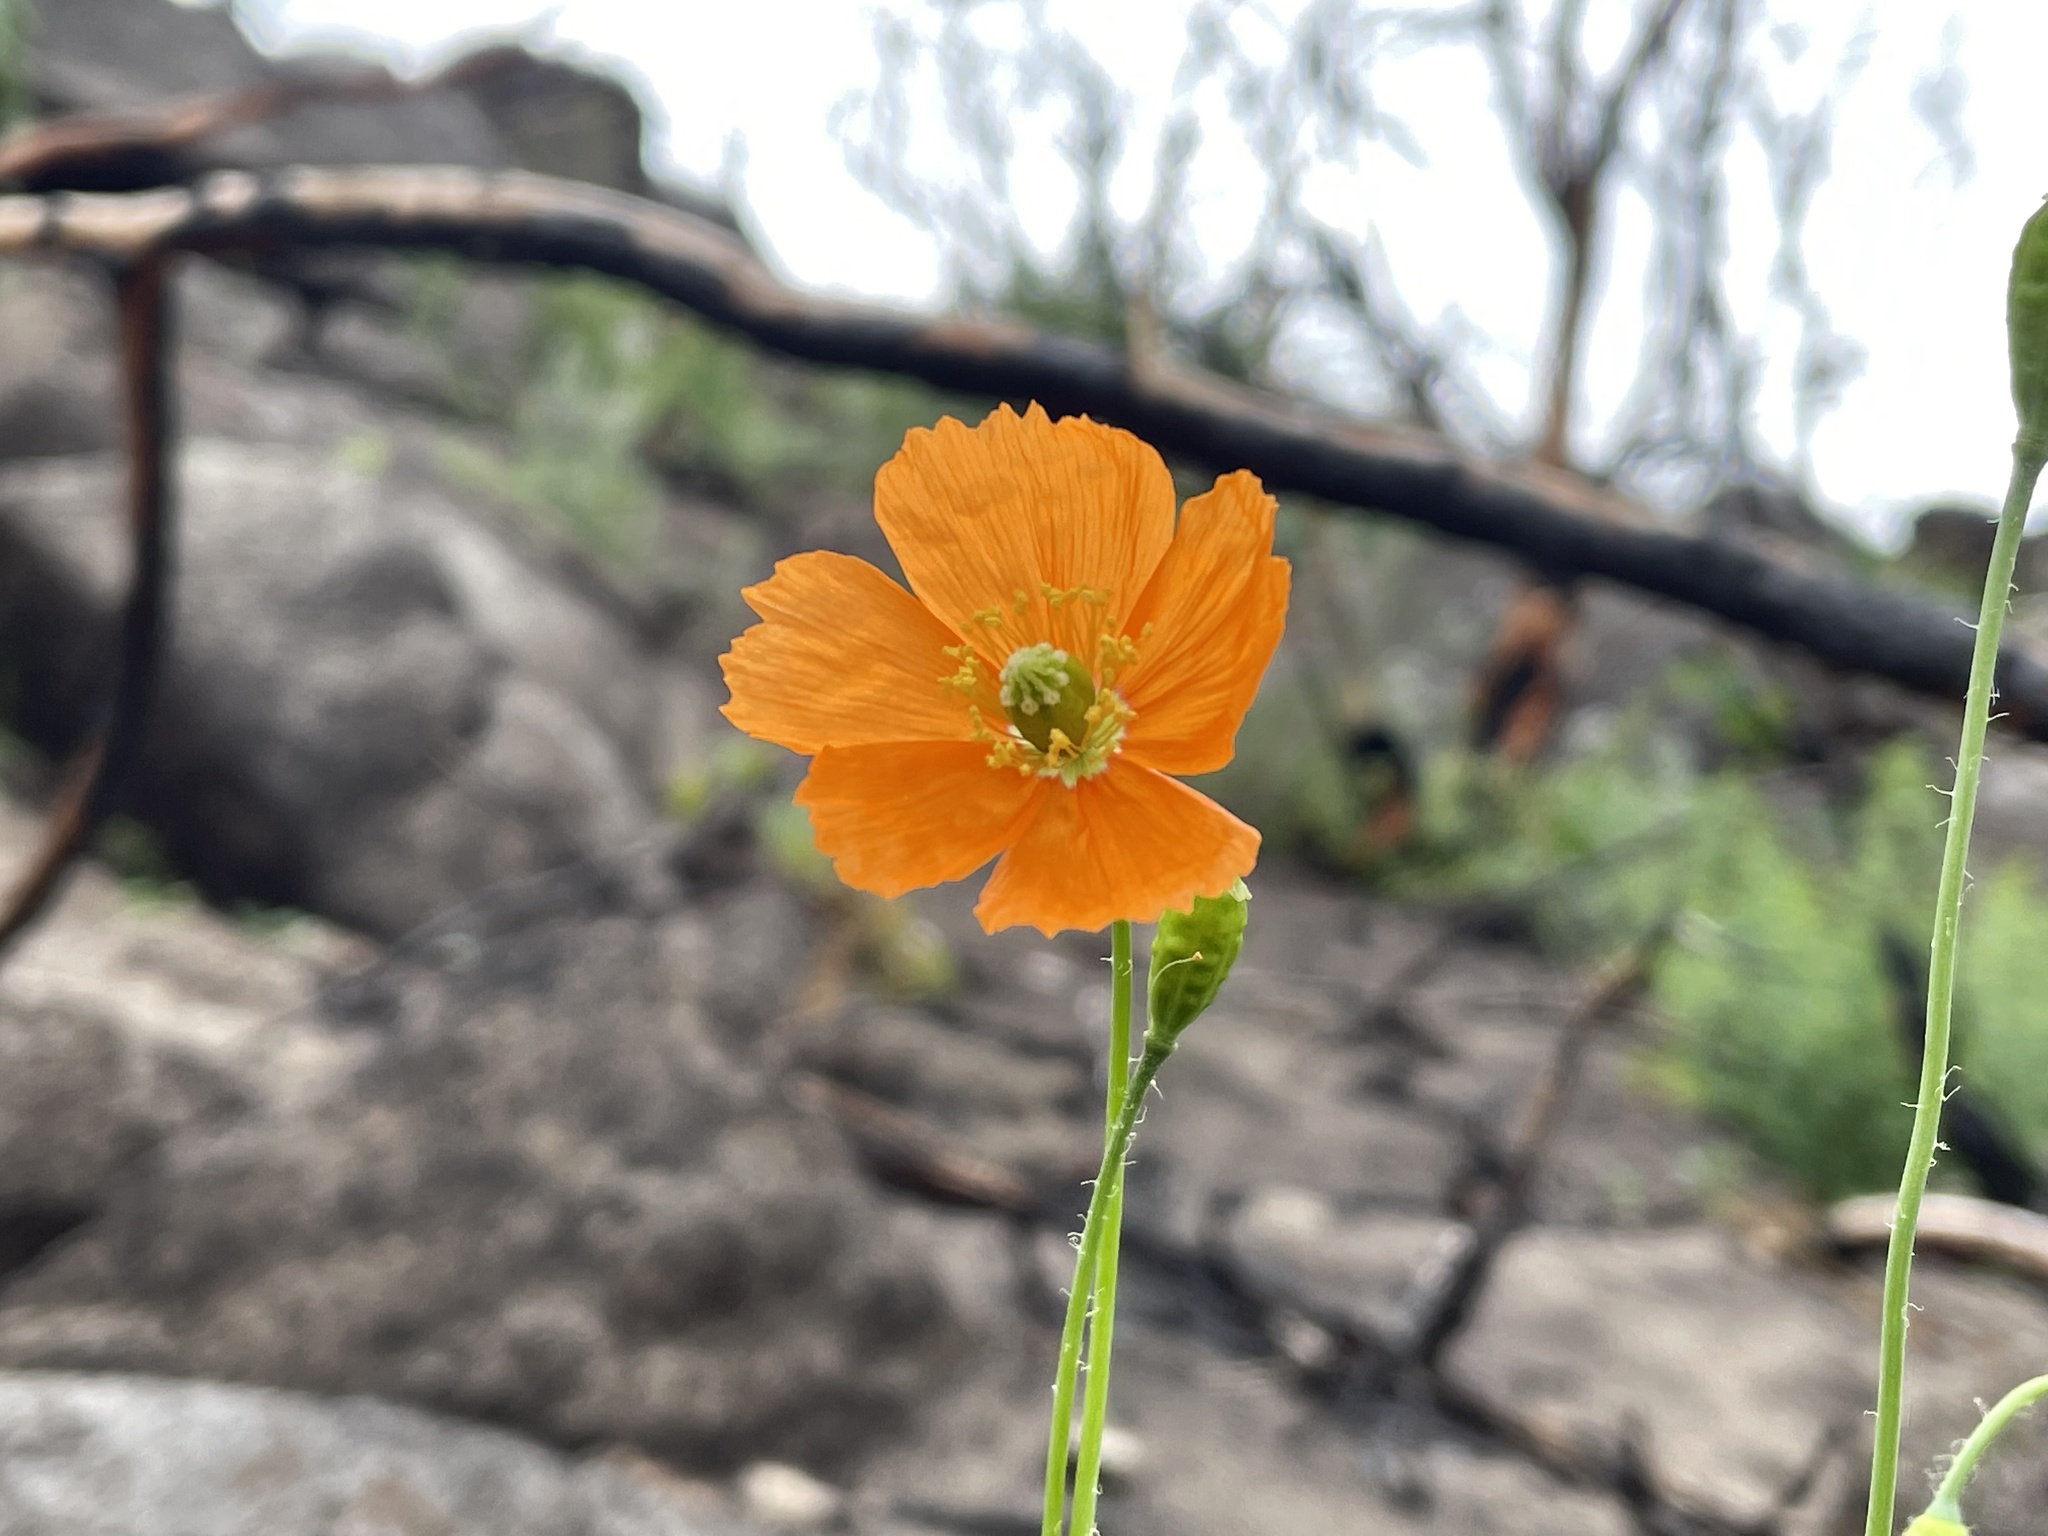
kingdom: Plantae
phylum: Tracheophyta
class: Magnoliopsida
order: Ranunculales
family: Papaveraceae
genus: Papaver
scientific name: Papaver californicum
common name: Fire poppy
